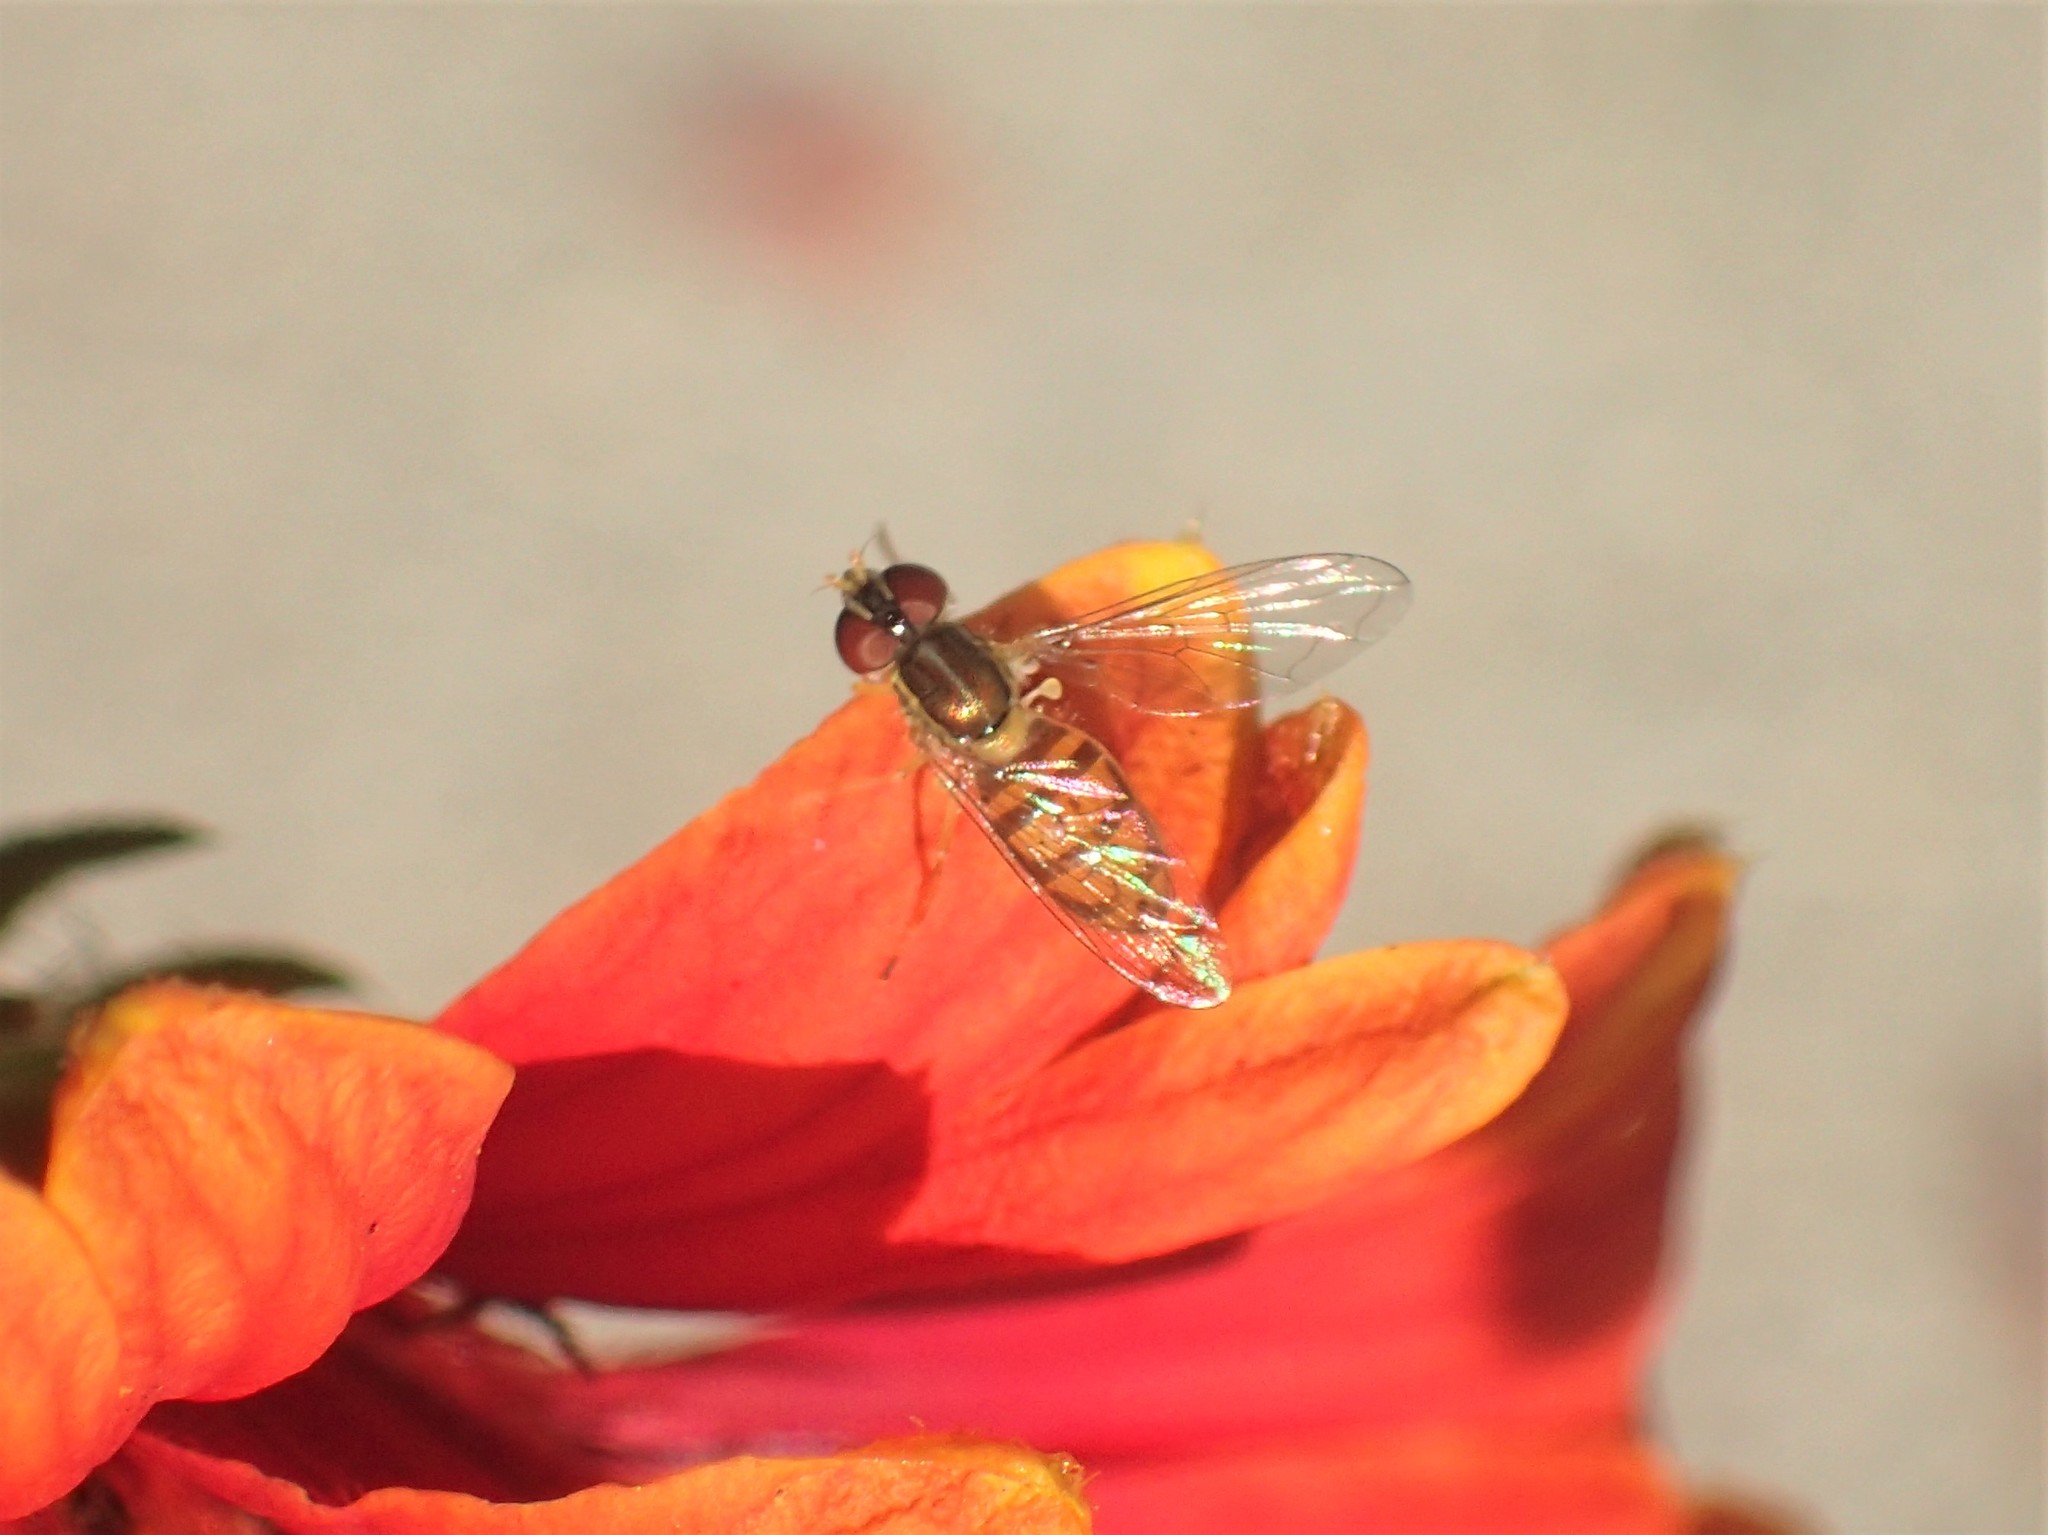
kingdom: Animalia
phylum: Arthropoda
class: Insecta
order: Diptera
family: Syrphidae
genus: Toxomerus
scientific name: Toxomerus marginatus
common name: Syrphid fly
